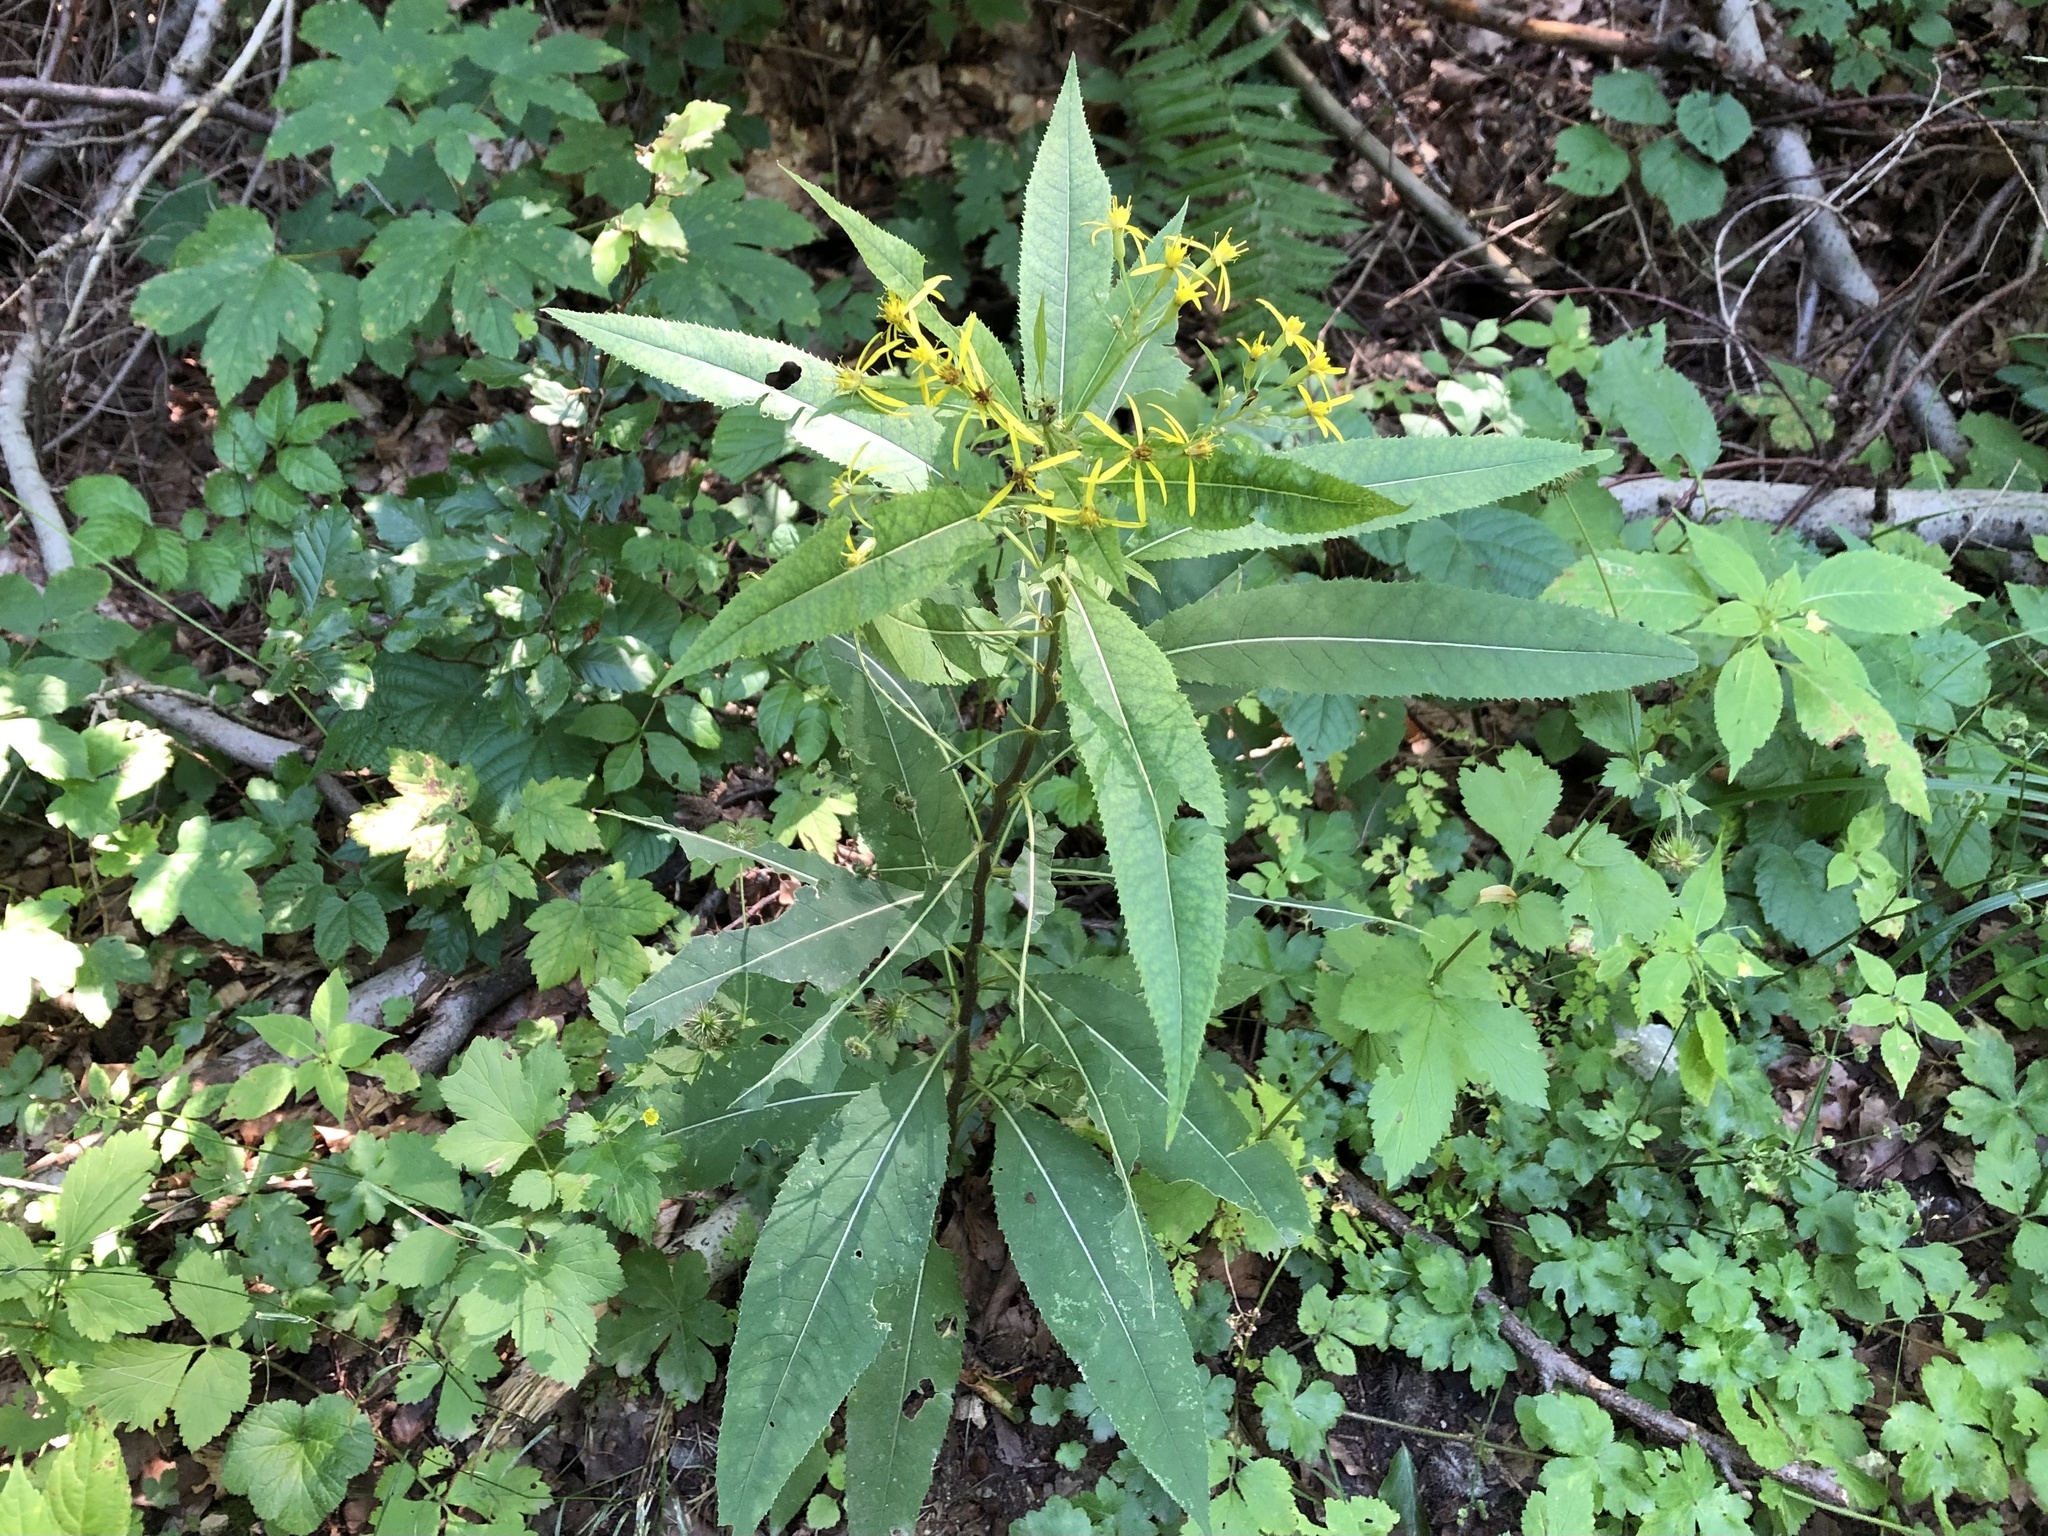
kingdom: Plantae
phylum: Tracheophyta
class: Magnoliopsida
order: Asterales
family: Asteraceae
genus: Senecio
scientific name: Senecio ovatus
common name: Wood ragwort
